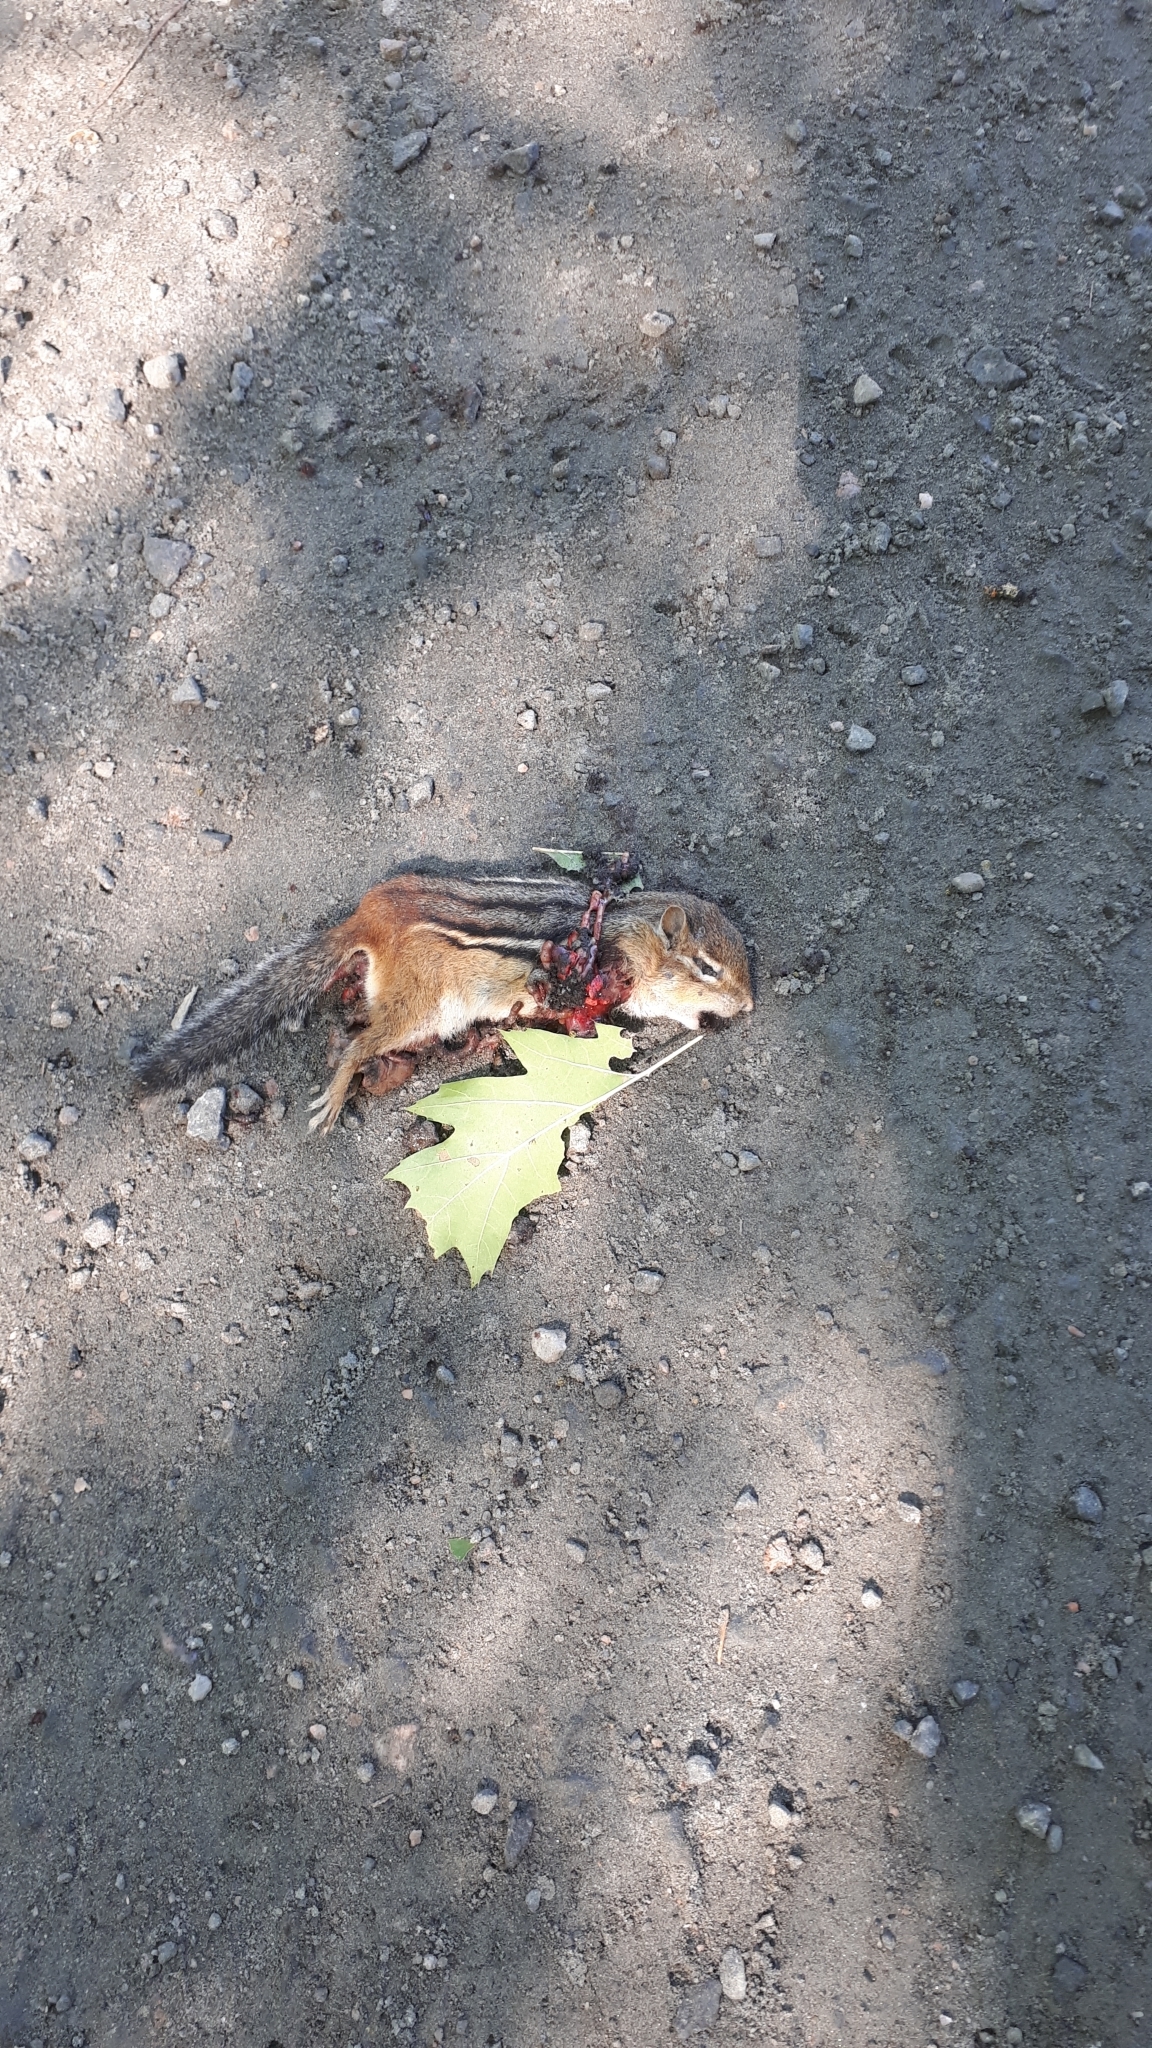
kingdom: Animalia
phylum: Chordata
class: Mammalia
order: Rodentia
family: Sciuridae
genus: Tamias
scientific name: Tamias striatus
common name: Eastern chipmunk
